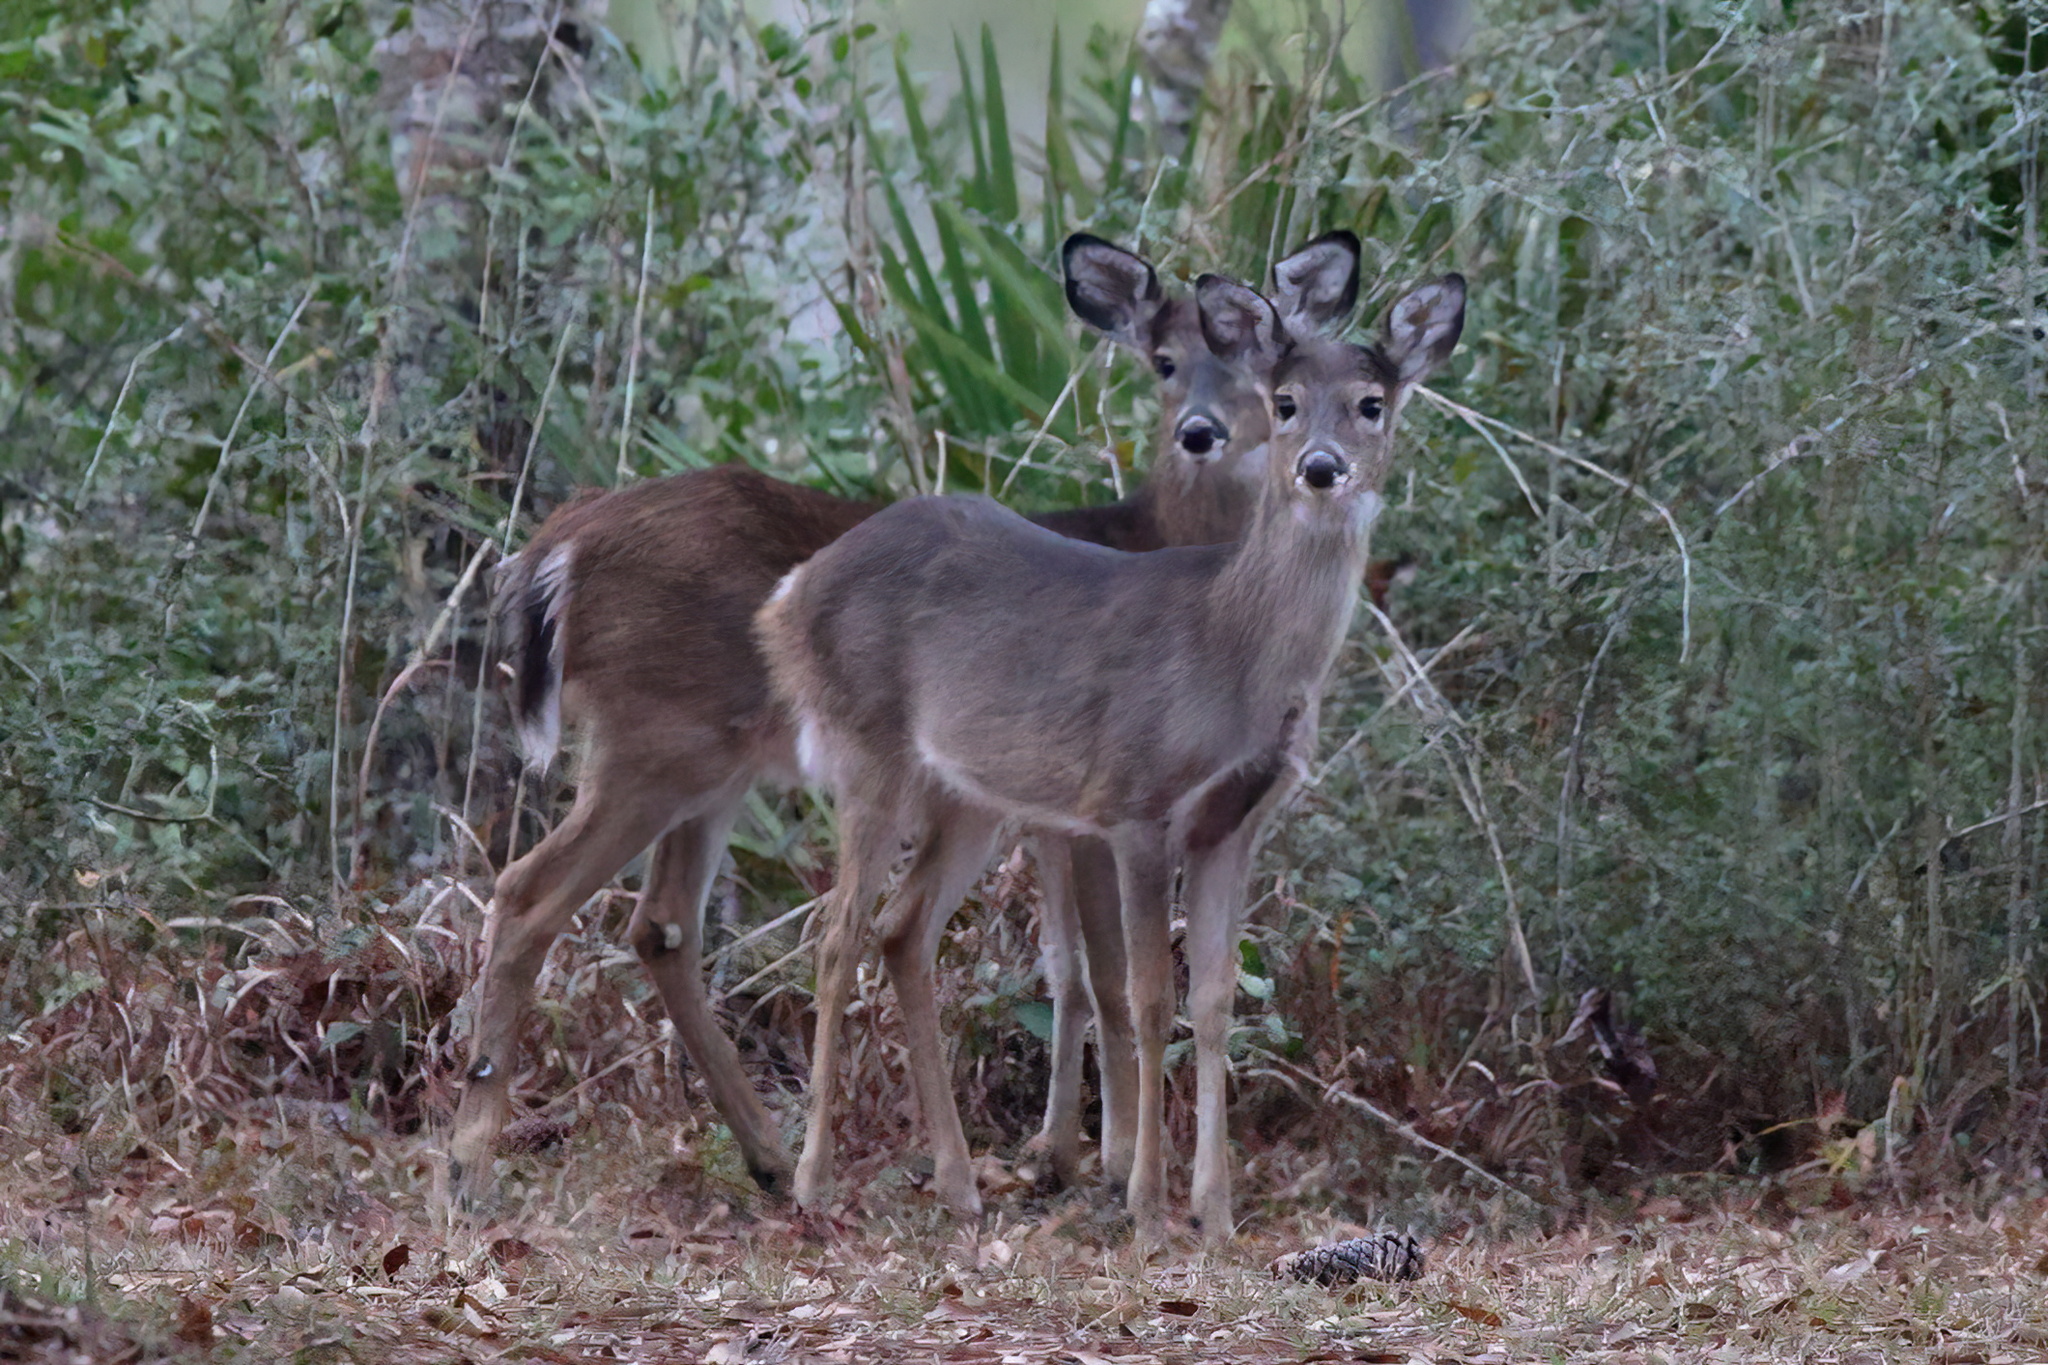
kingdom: Animalia
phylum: Chordata
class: Mammalia
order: Artiodactyla
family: Cervidae
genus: Odocoileus
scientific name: Odocoileus virginianus
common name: White-tailed deer
